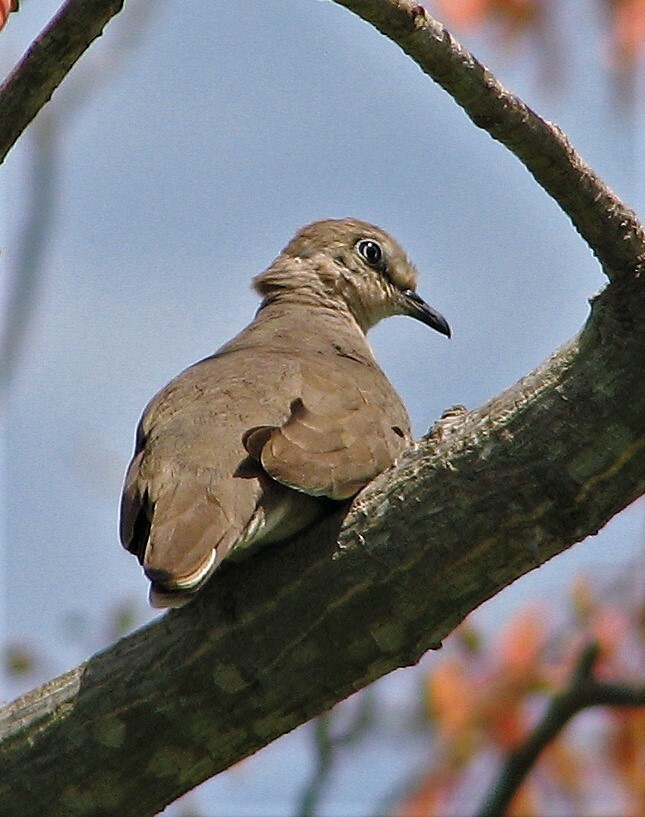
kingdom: Animalia
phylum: Chordata
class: Aves
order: Columbiformes
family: Columbidae
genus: Columbina
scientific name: Columbina picui
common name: Picui ground dove
